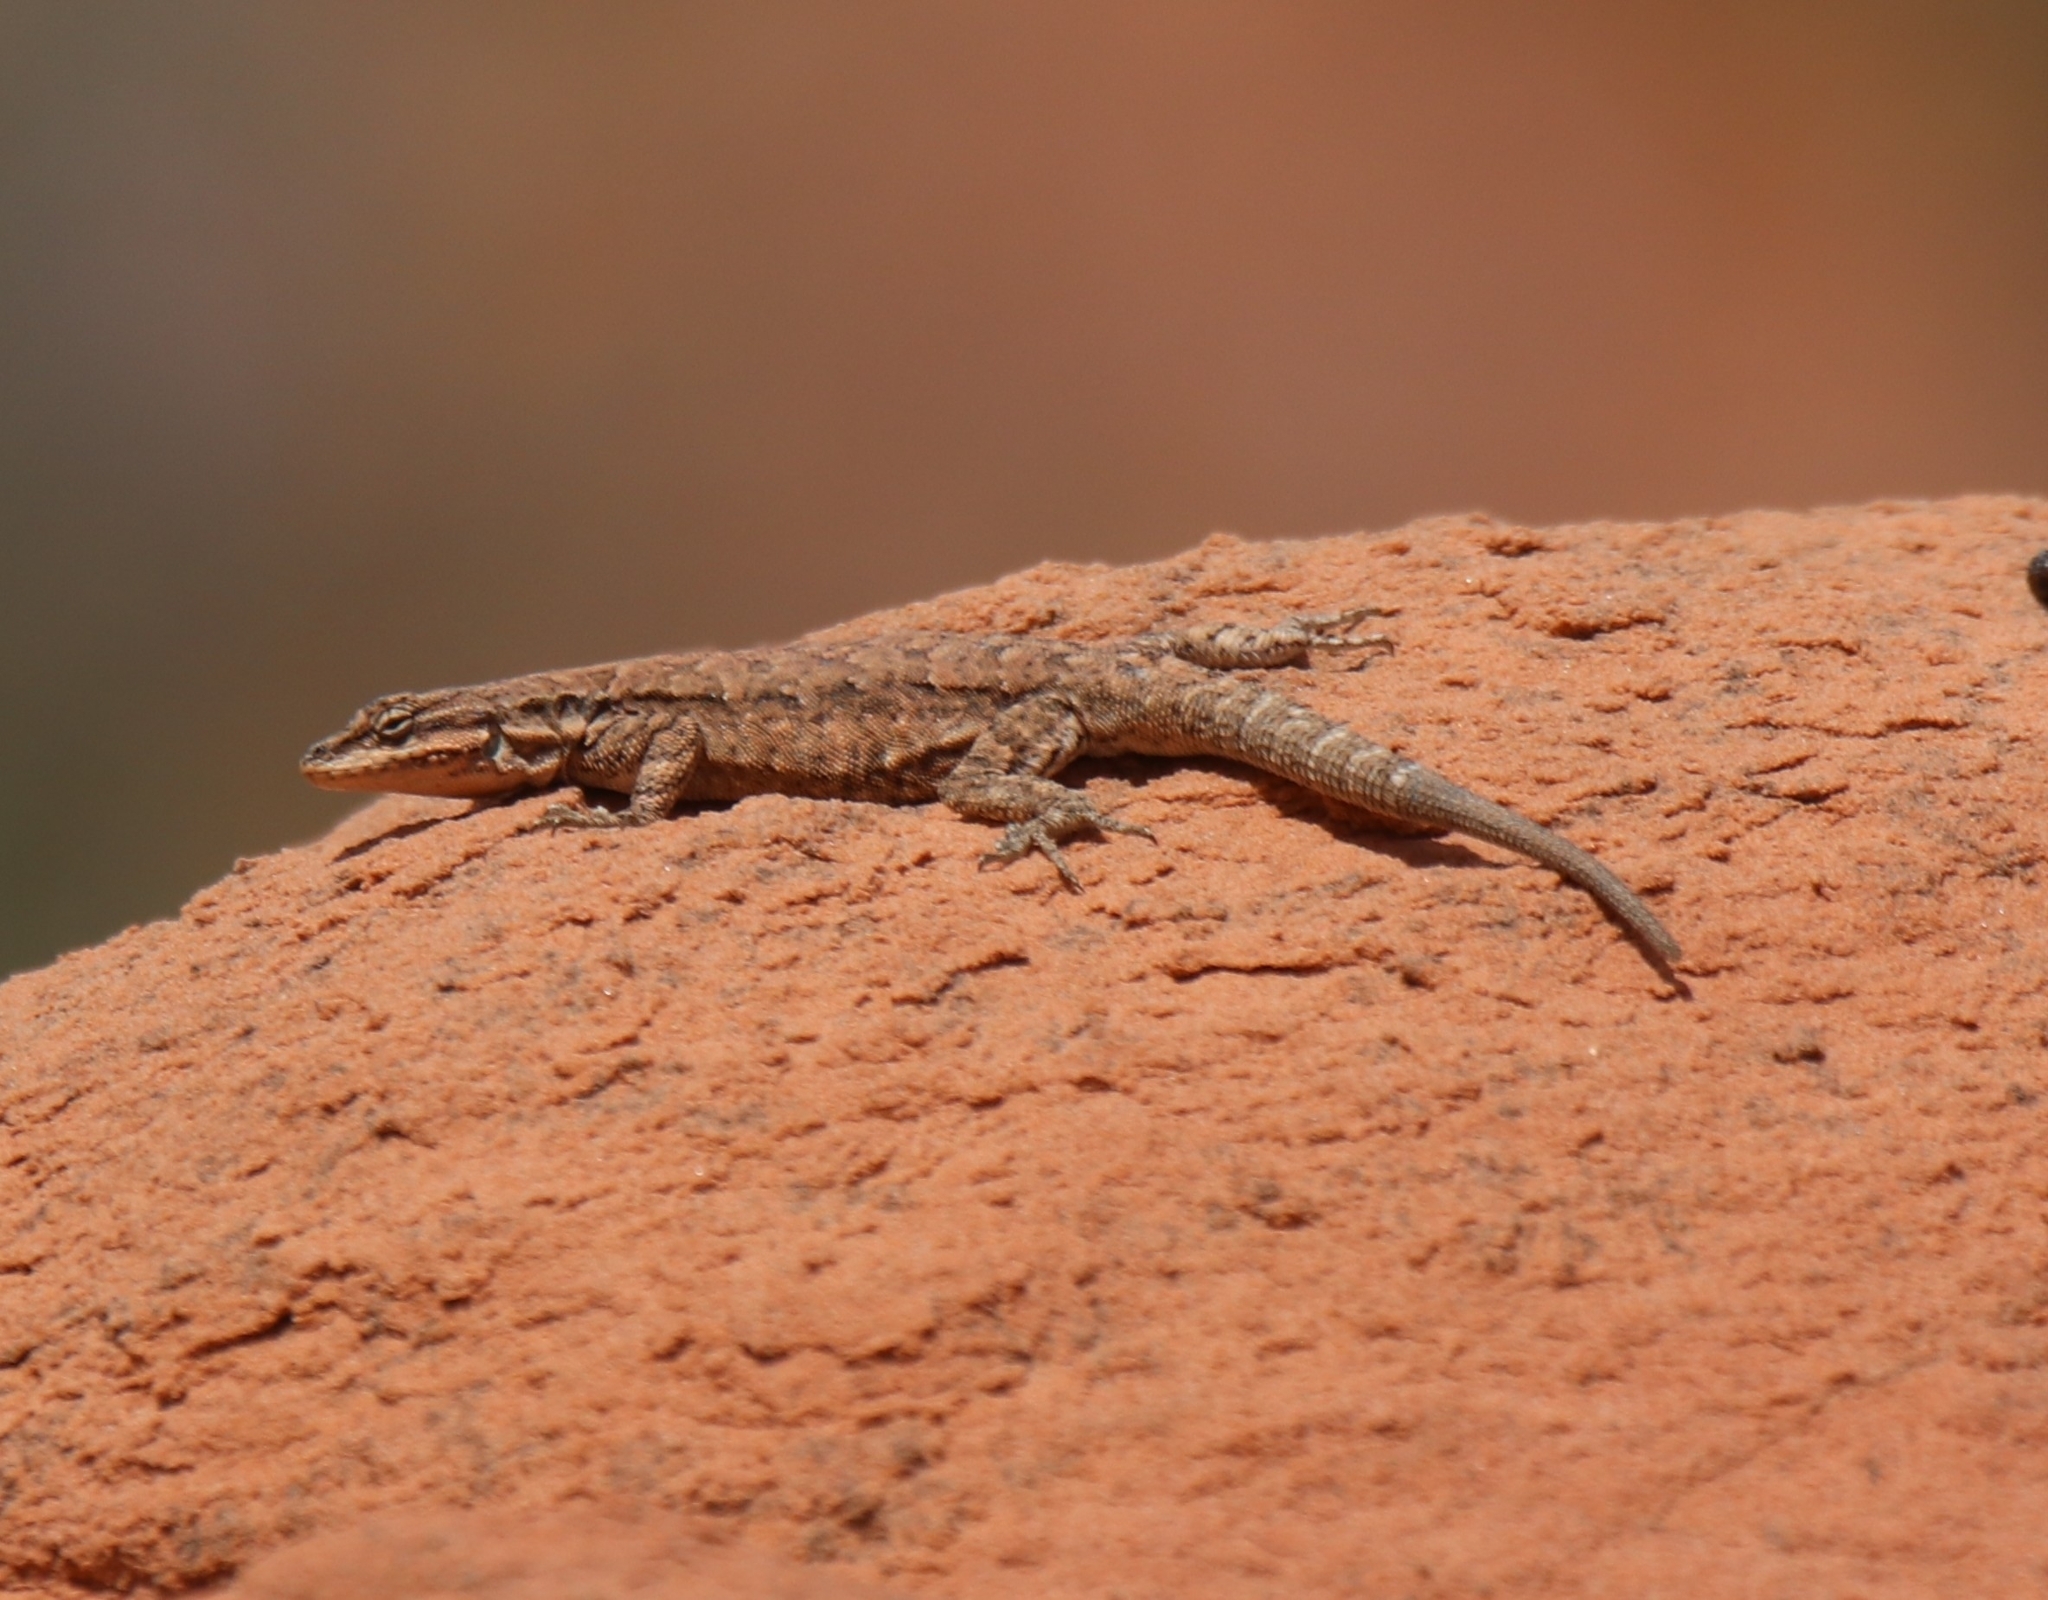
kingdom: Animalia
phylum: Chordata
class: Squamata
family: Phrynosomatidae
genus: Urosaurus
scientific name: Urosaurus ornatus
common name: Ornate tree lizard
